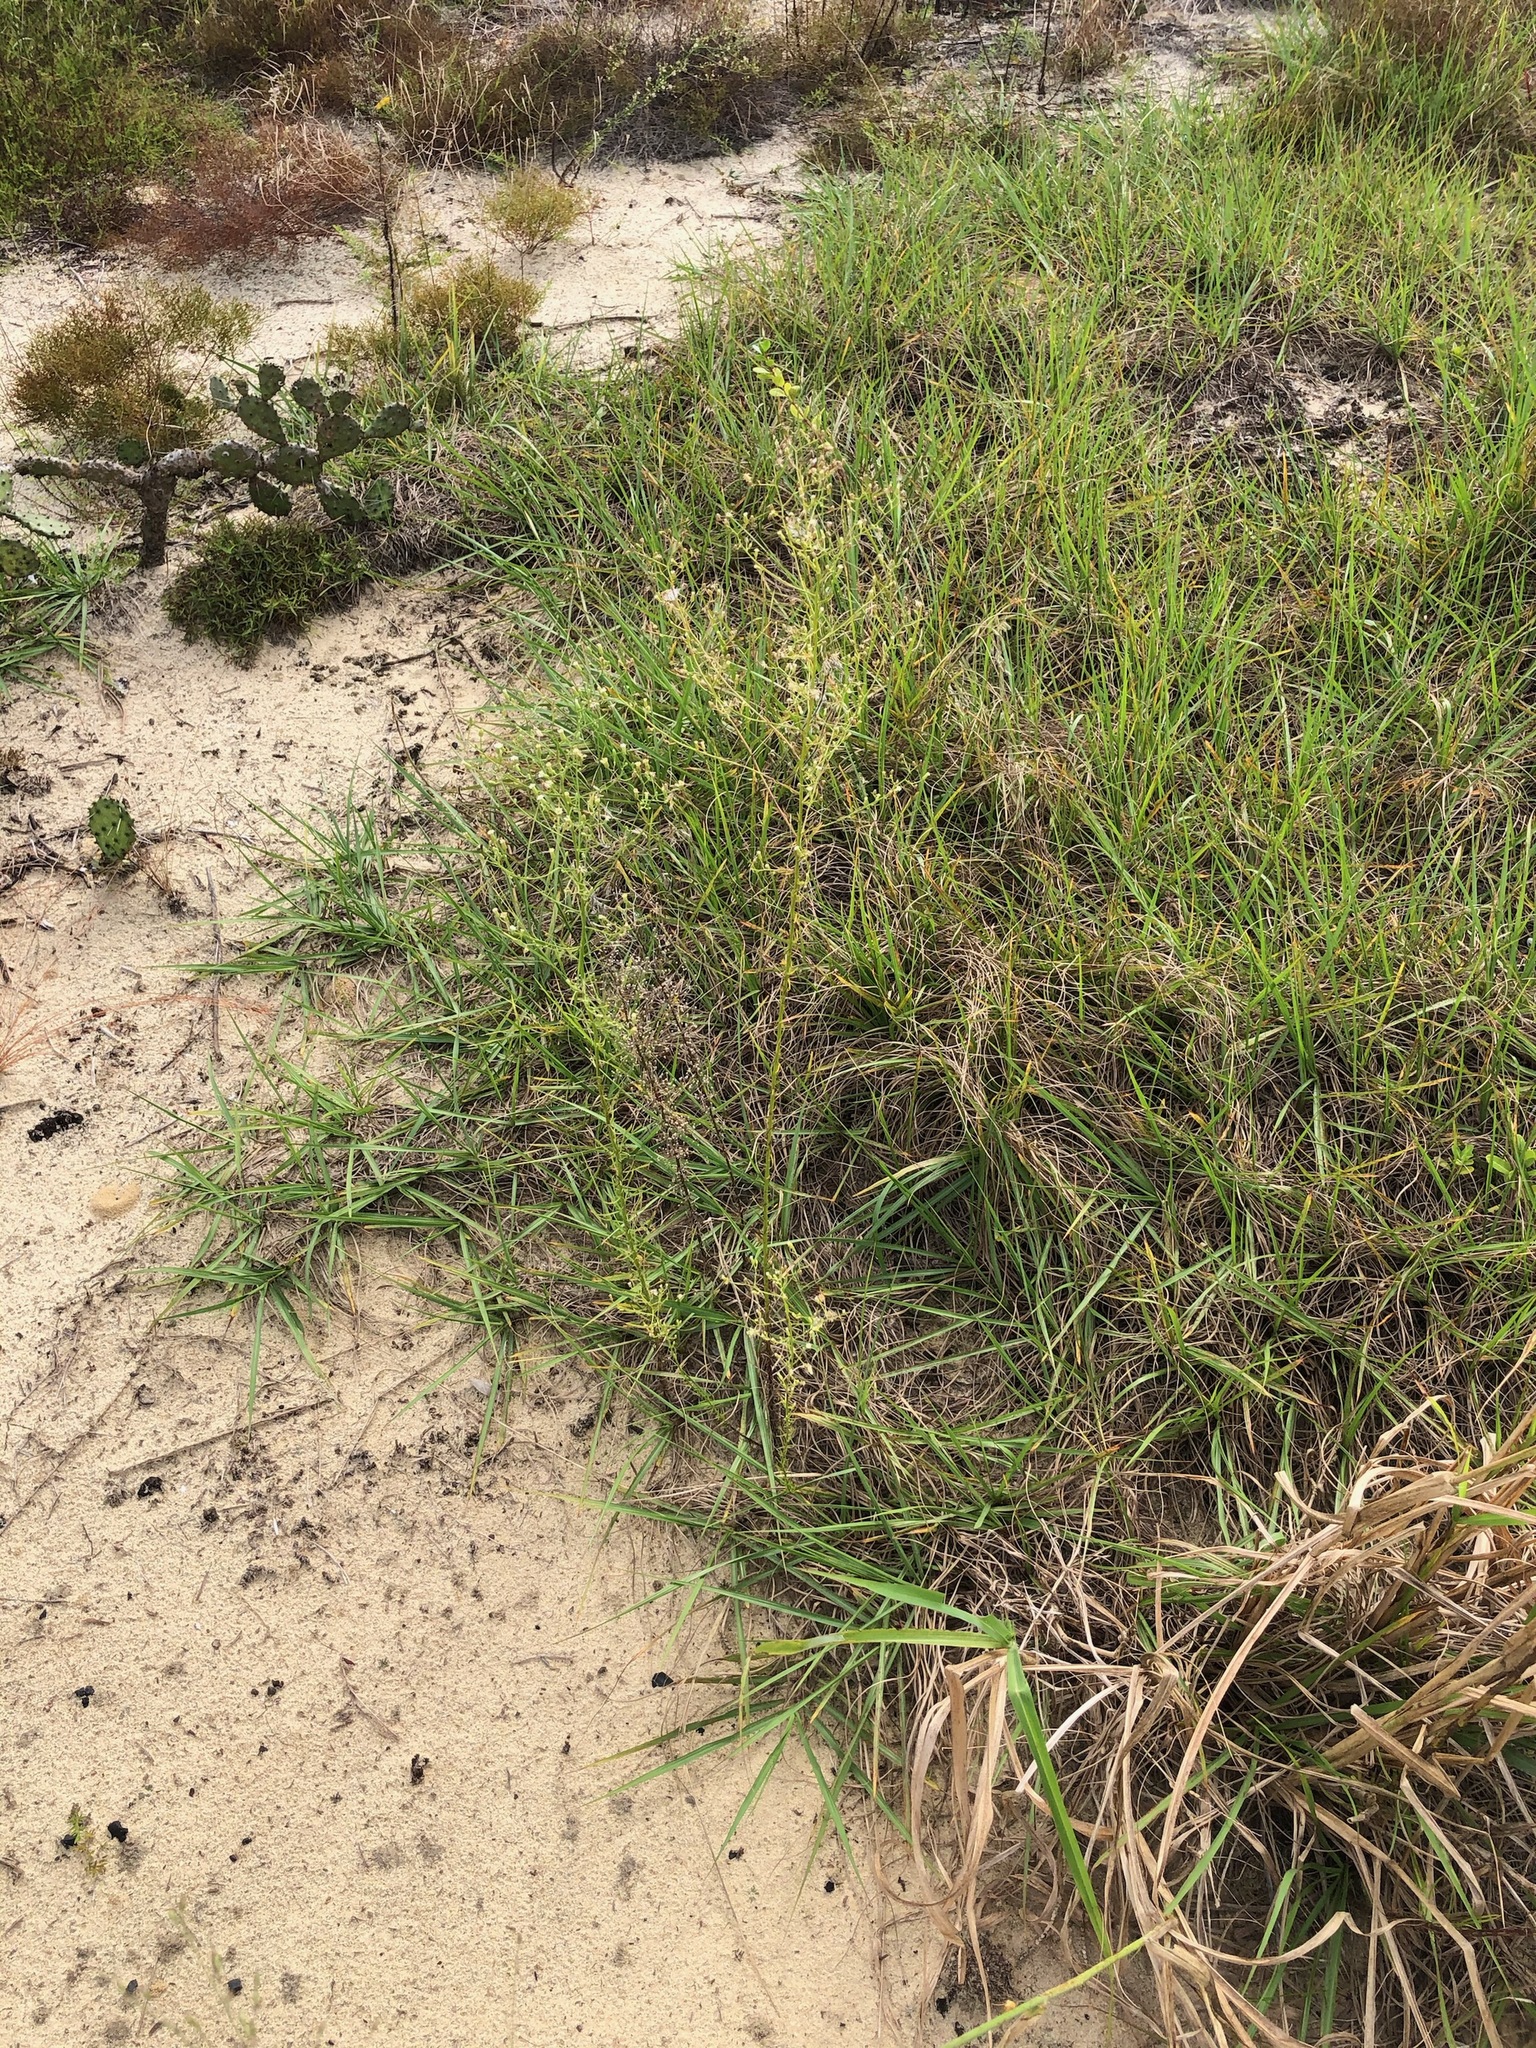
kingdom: Plantae
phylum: Tracheophyta
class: Magnoliopsida
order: Asterales
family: Asteraceae
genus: Erigeron
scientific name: Erigeron canadensis
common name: Canadian fleabane
